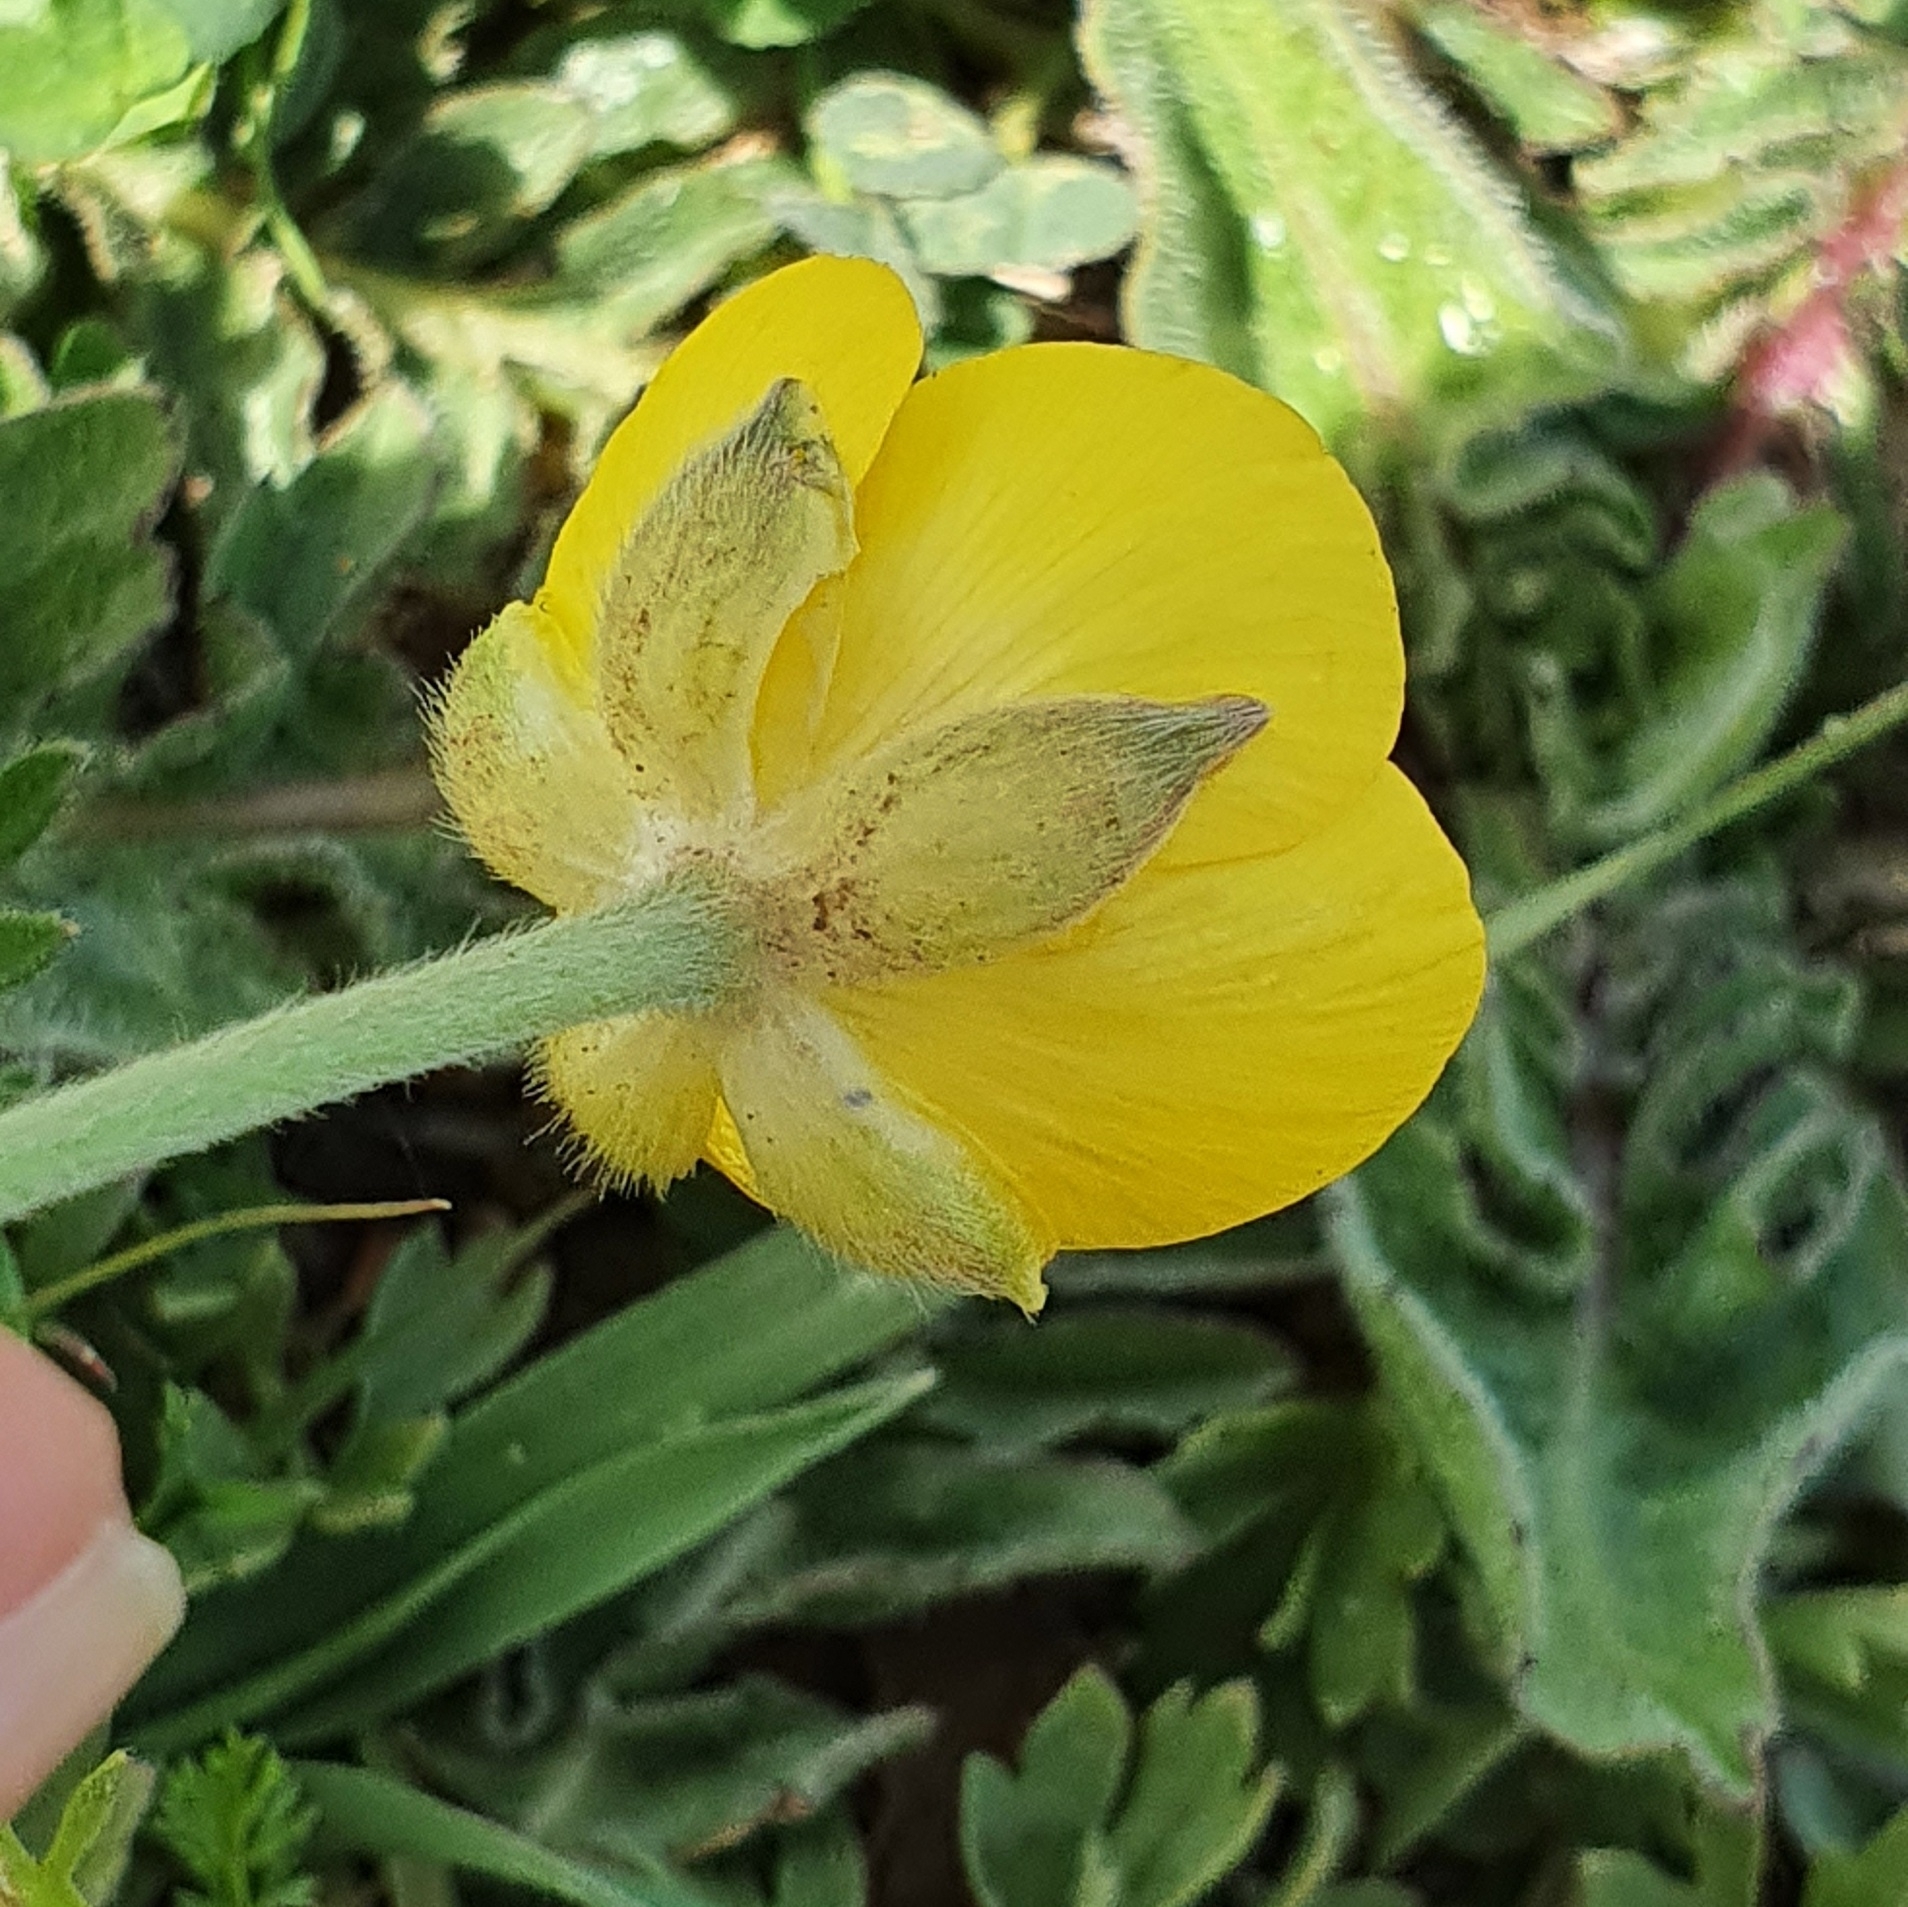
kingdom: Plantae
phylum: Tracheophyta
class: Magnoliopsida
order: Ranunculales
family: Ranunculaceae
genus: Ranunculus
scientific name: Ranunculus paludosus
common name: Jersey buttercup
